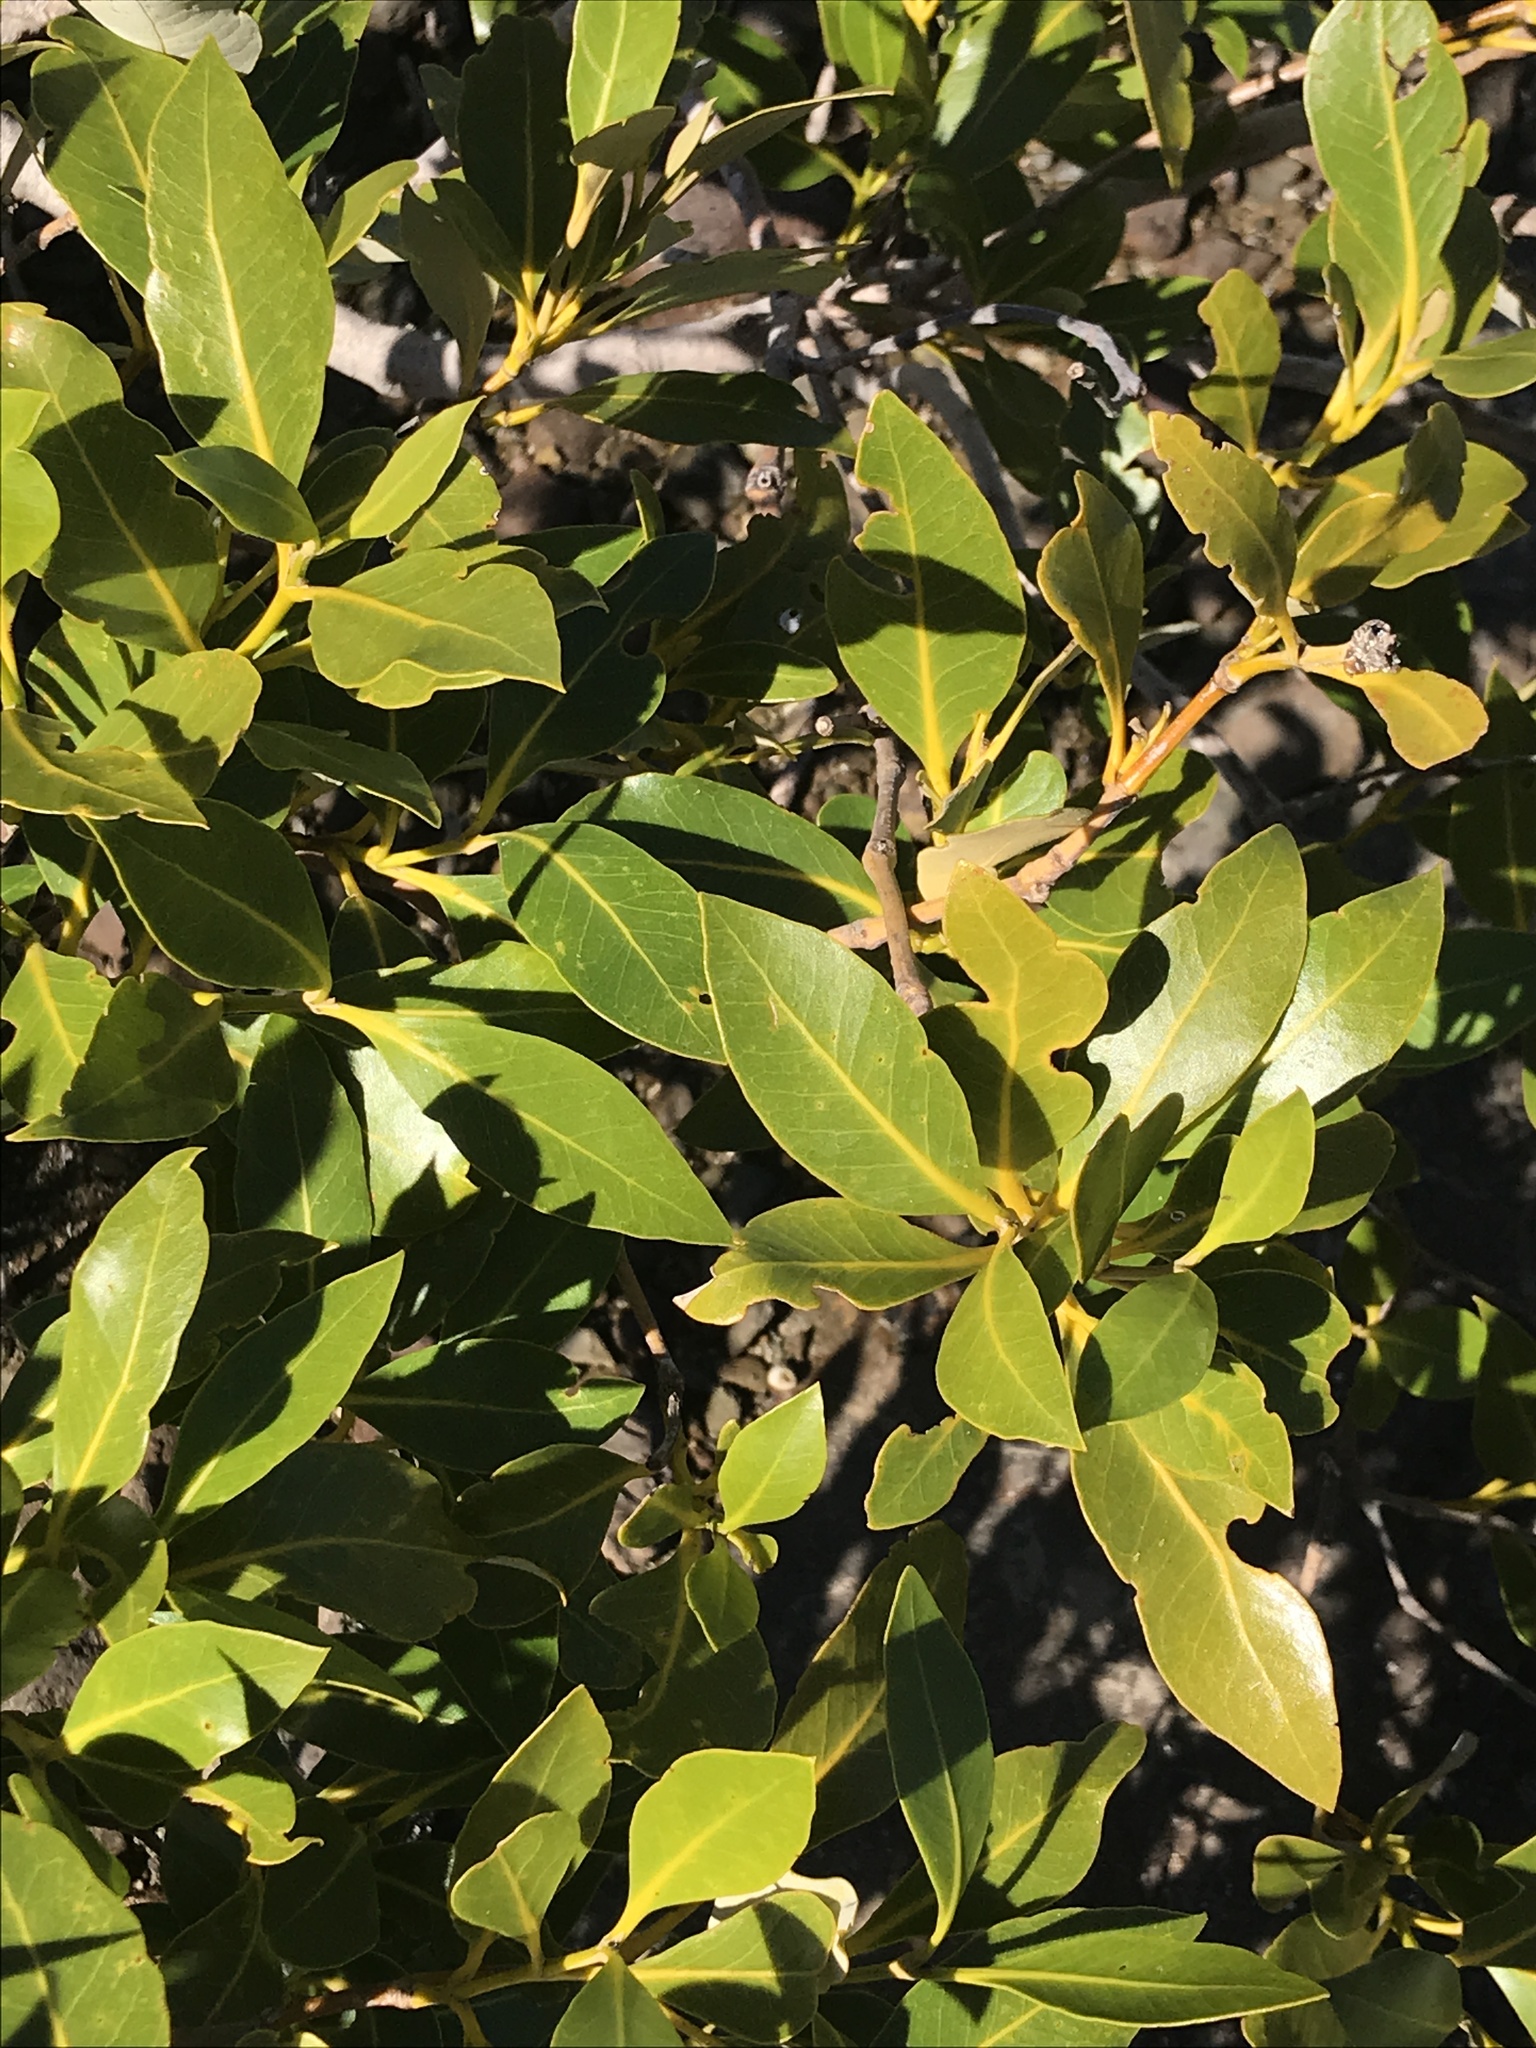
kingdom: Plantae
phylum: Tracheophyta
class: Magnoliopsida
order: Lamiales
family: Acanthaceae
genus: Avicennia
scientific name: Avicennia marina
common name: Gray mangrove
